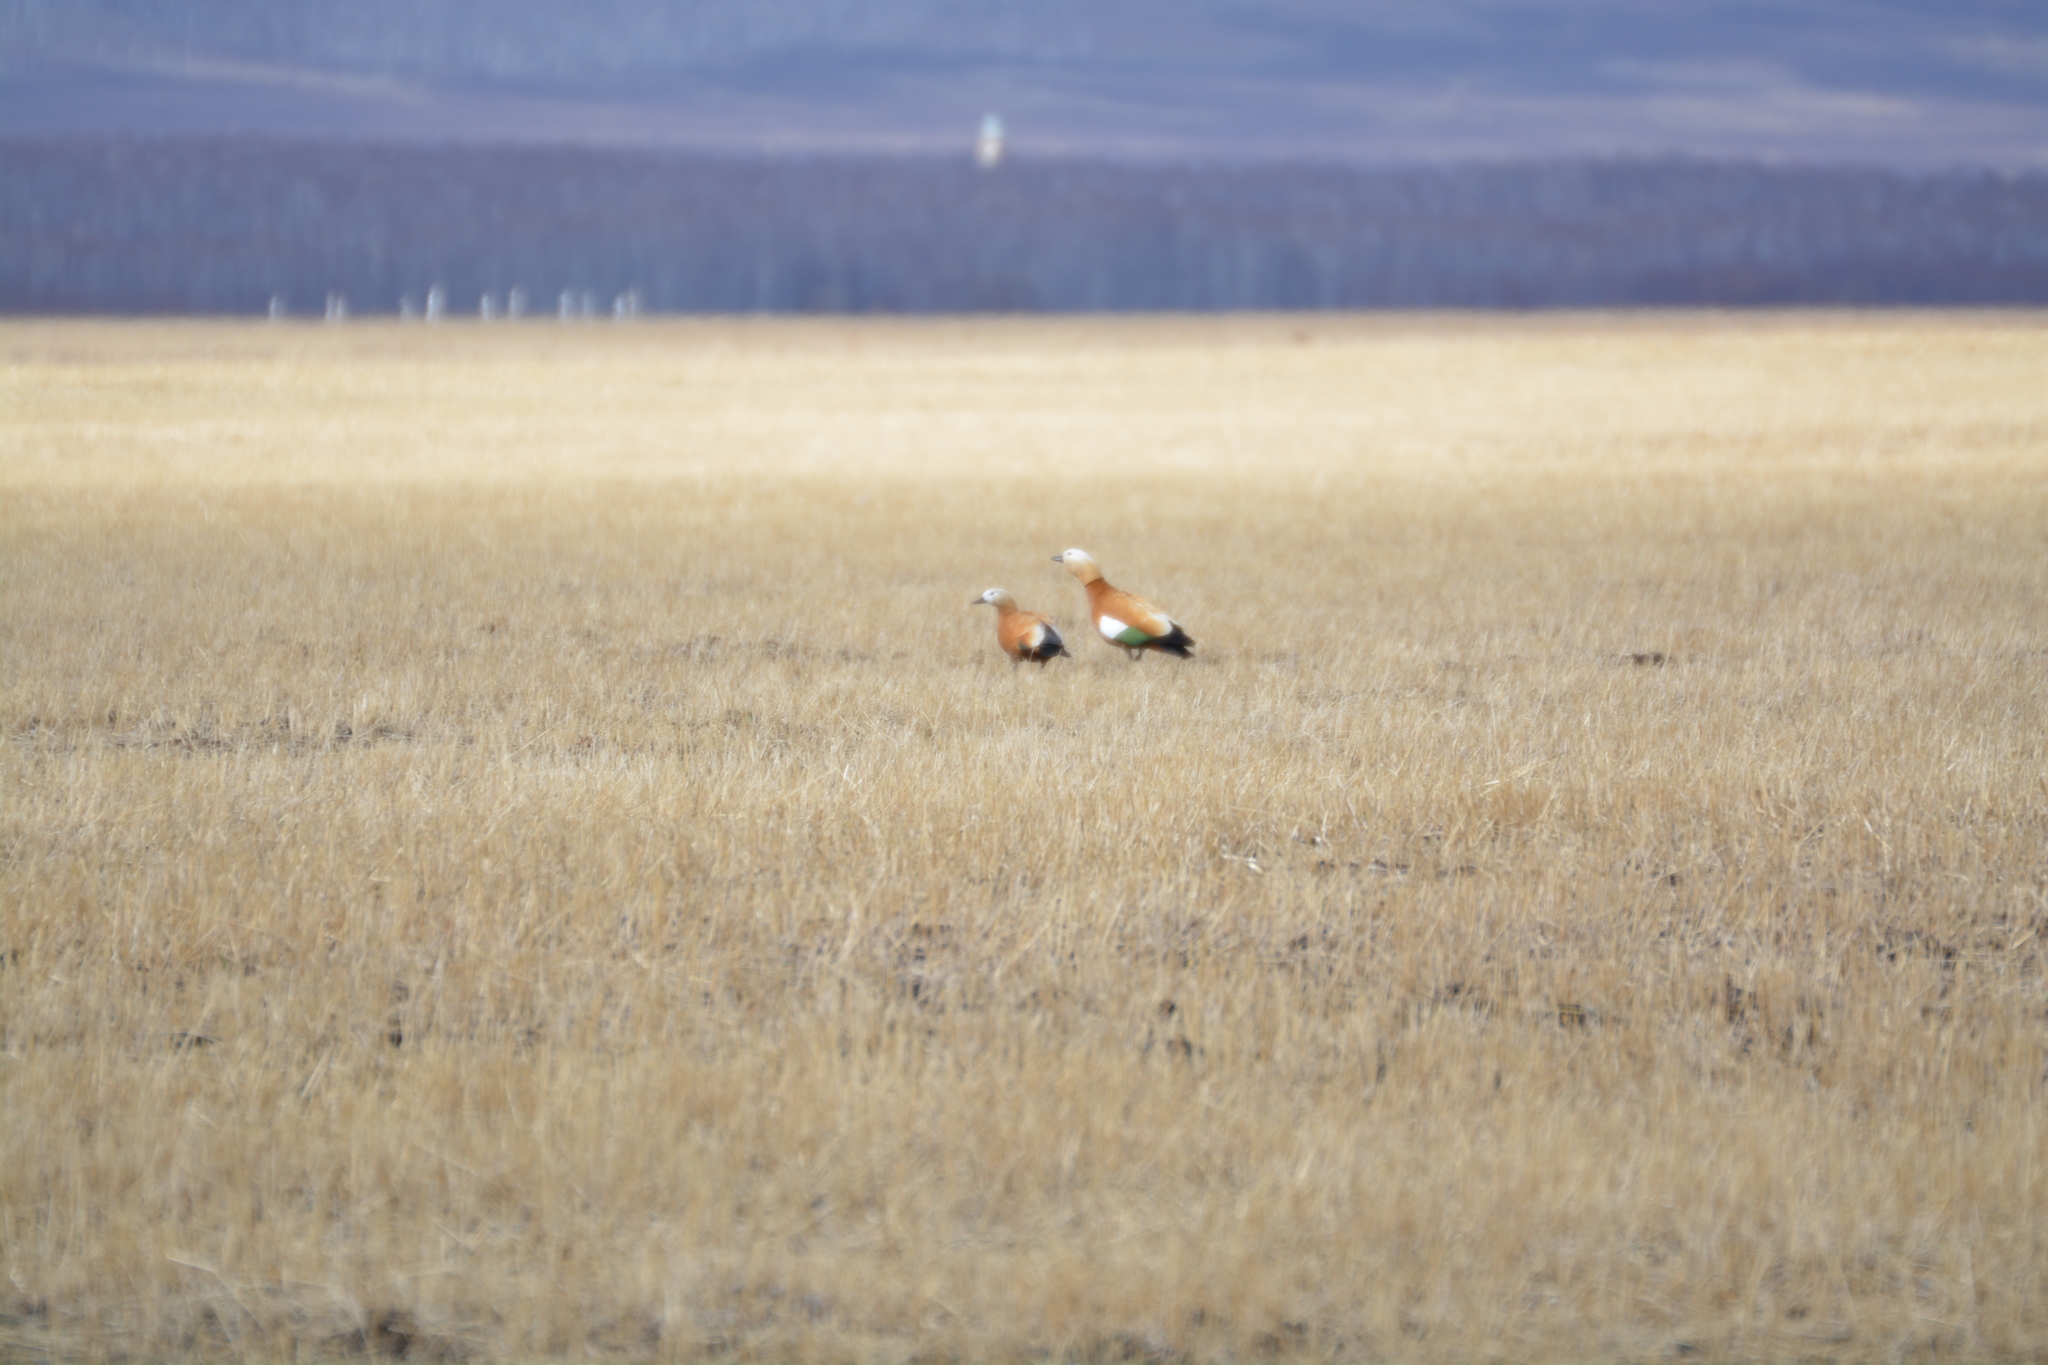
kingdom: Animalia
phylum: Chordata
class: Aves
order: Anseriformes
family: Anatidae
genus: Tadorna
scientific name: Tadorna ferruginea
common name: Ruddy shelduck
